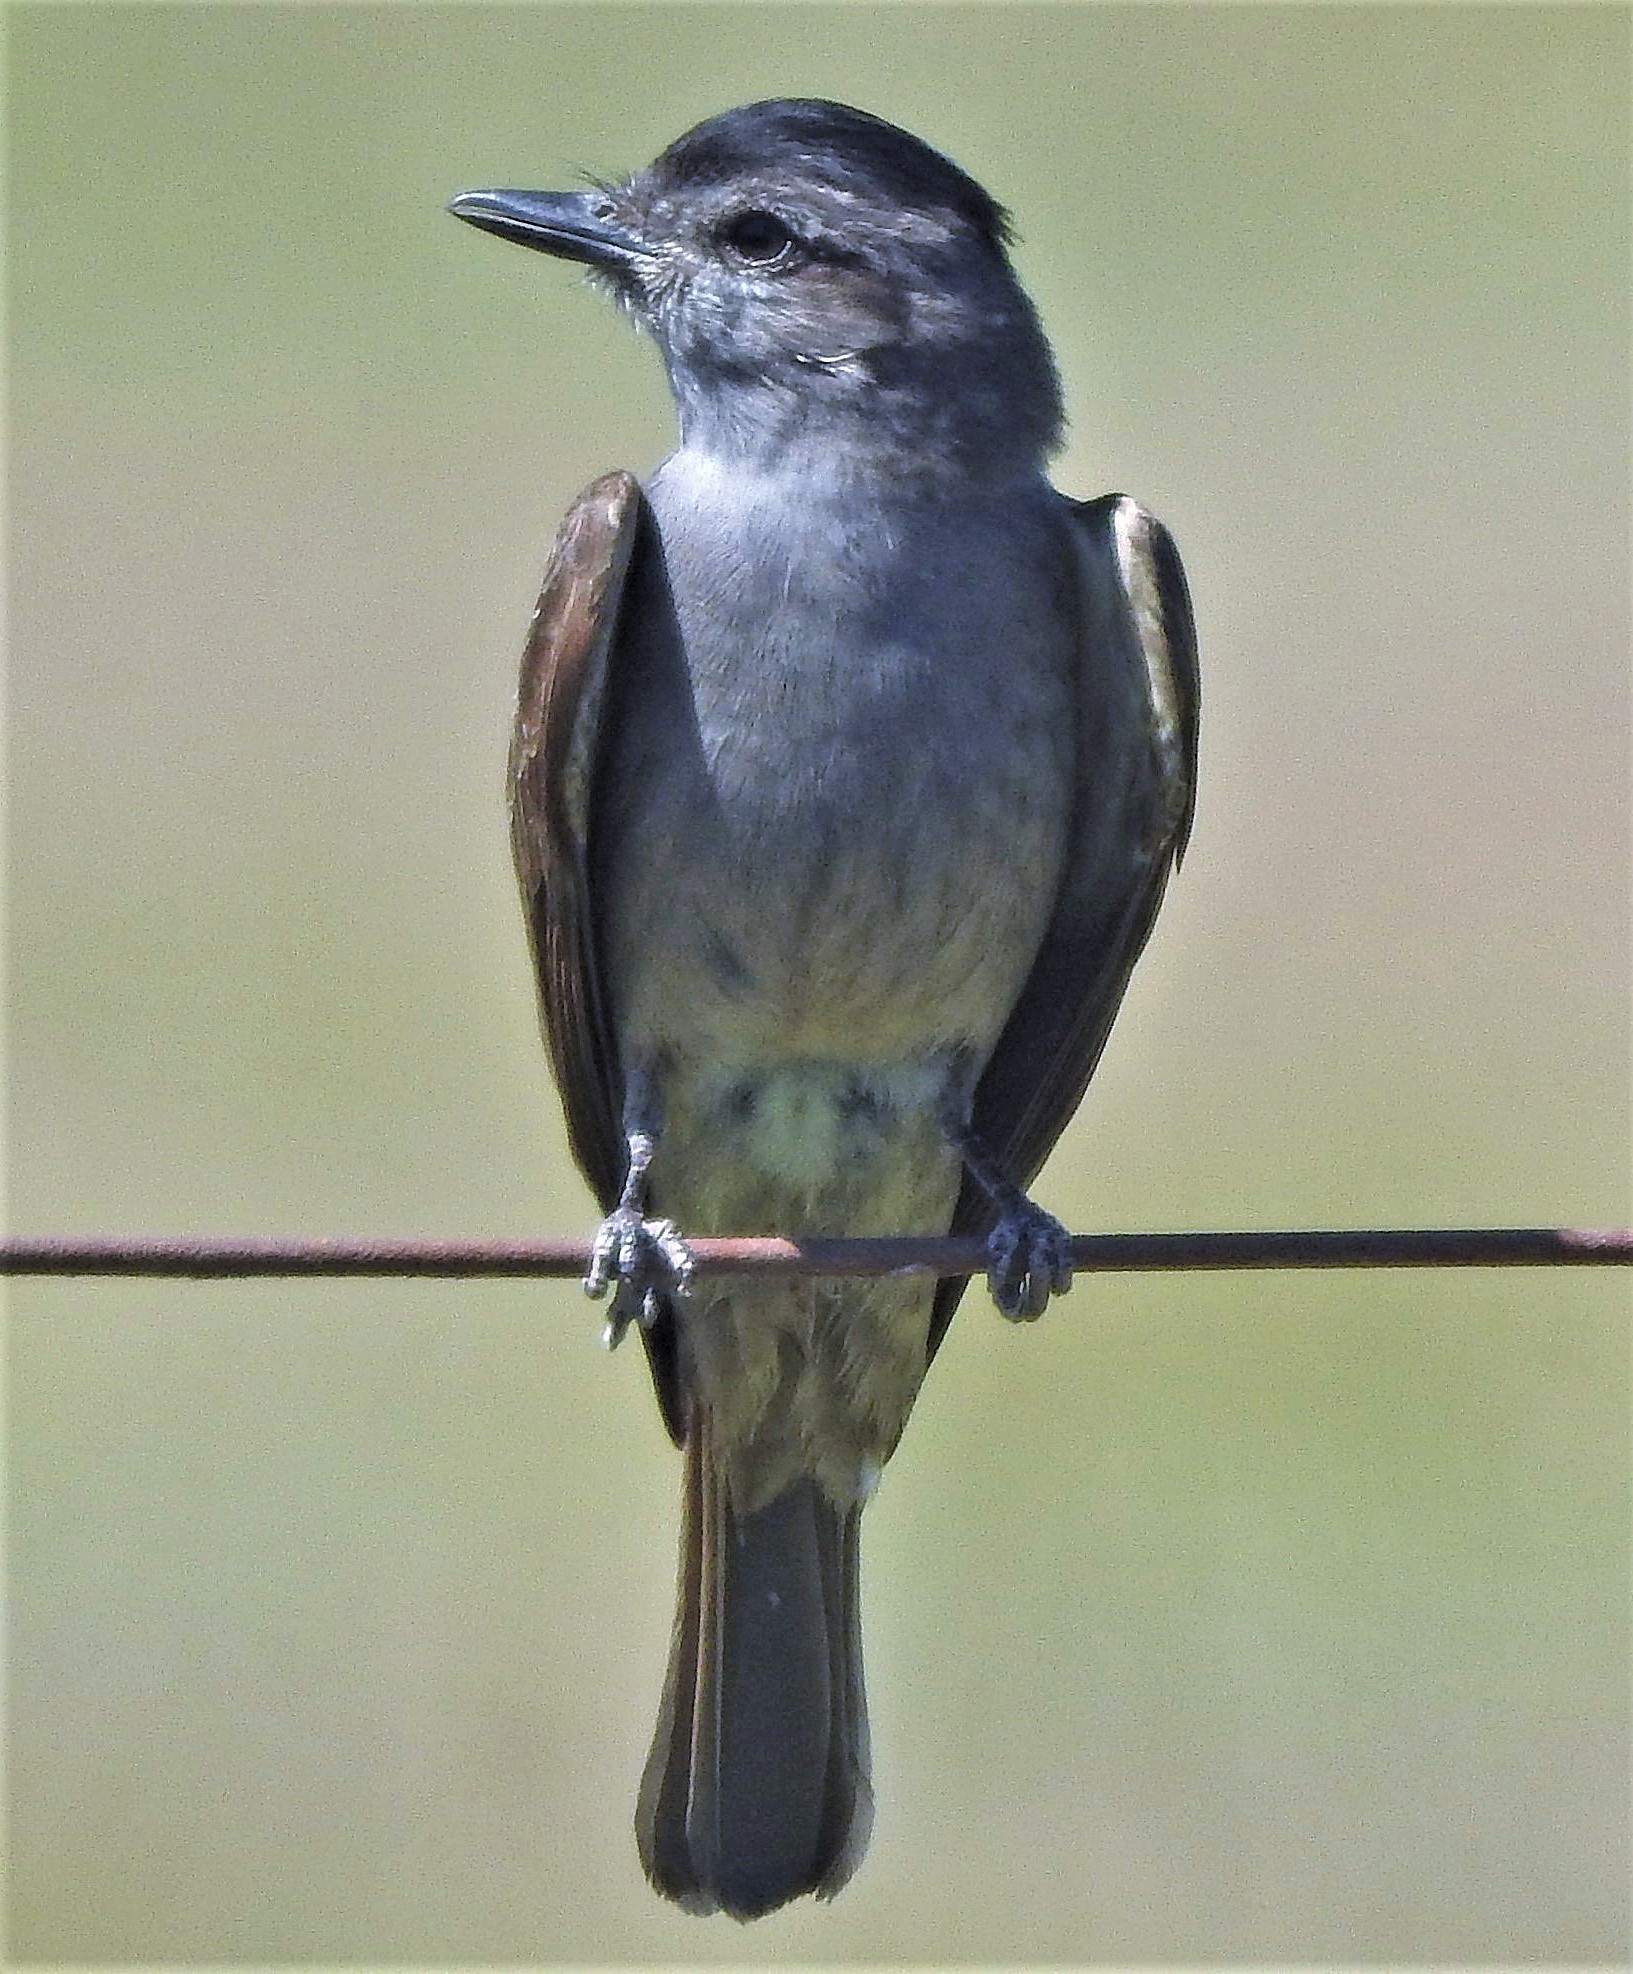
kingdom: Animalia
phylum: Chordata
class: Aves
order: Passeriformes
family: Tyrannidae
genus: Empidonomus
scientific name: Empidonomus aurantioatrocristatus
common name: Crowned slaty flycatcher
